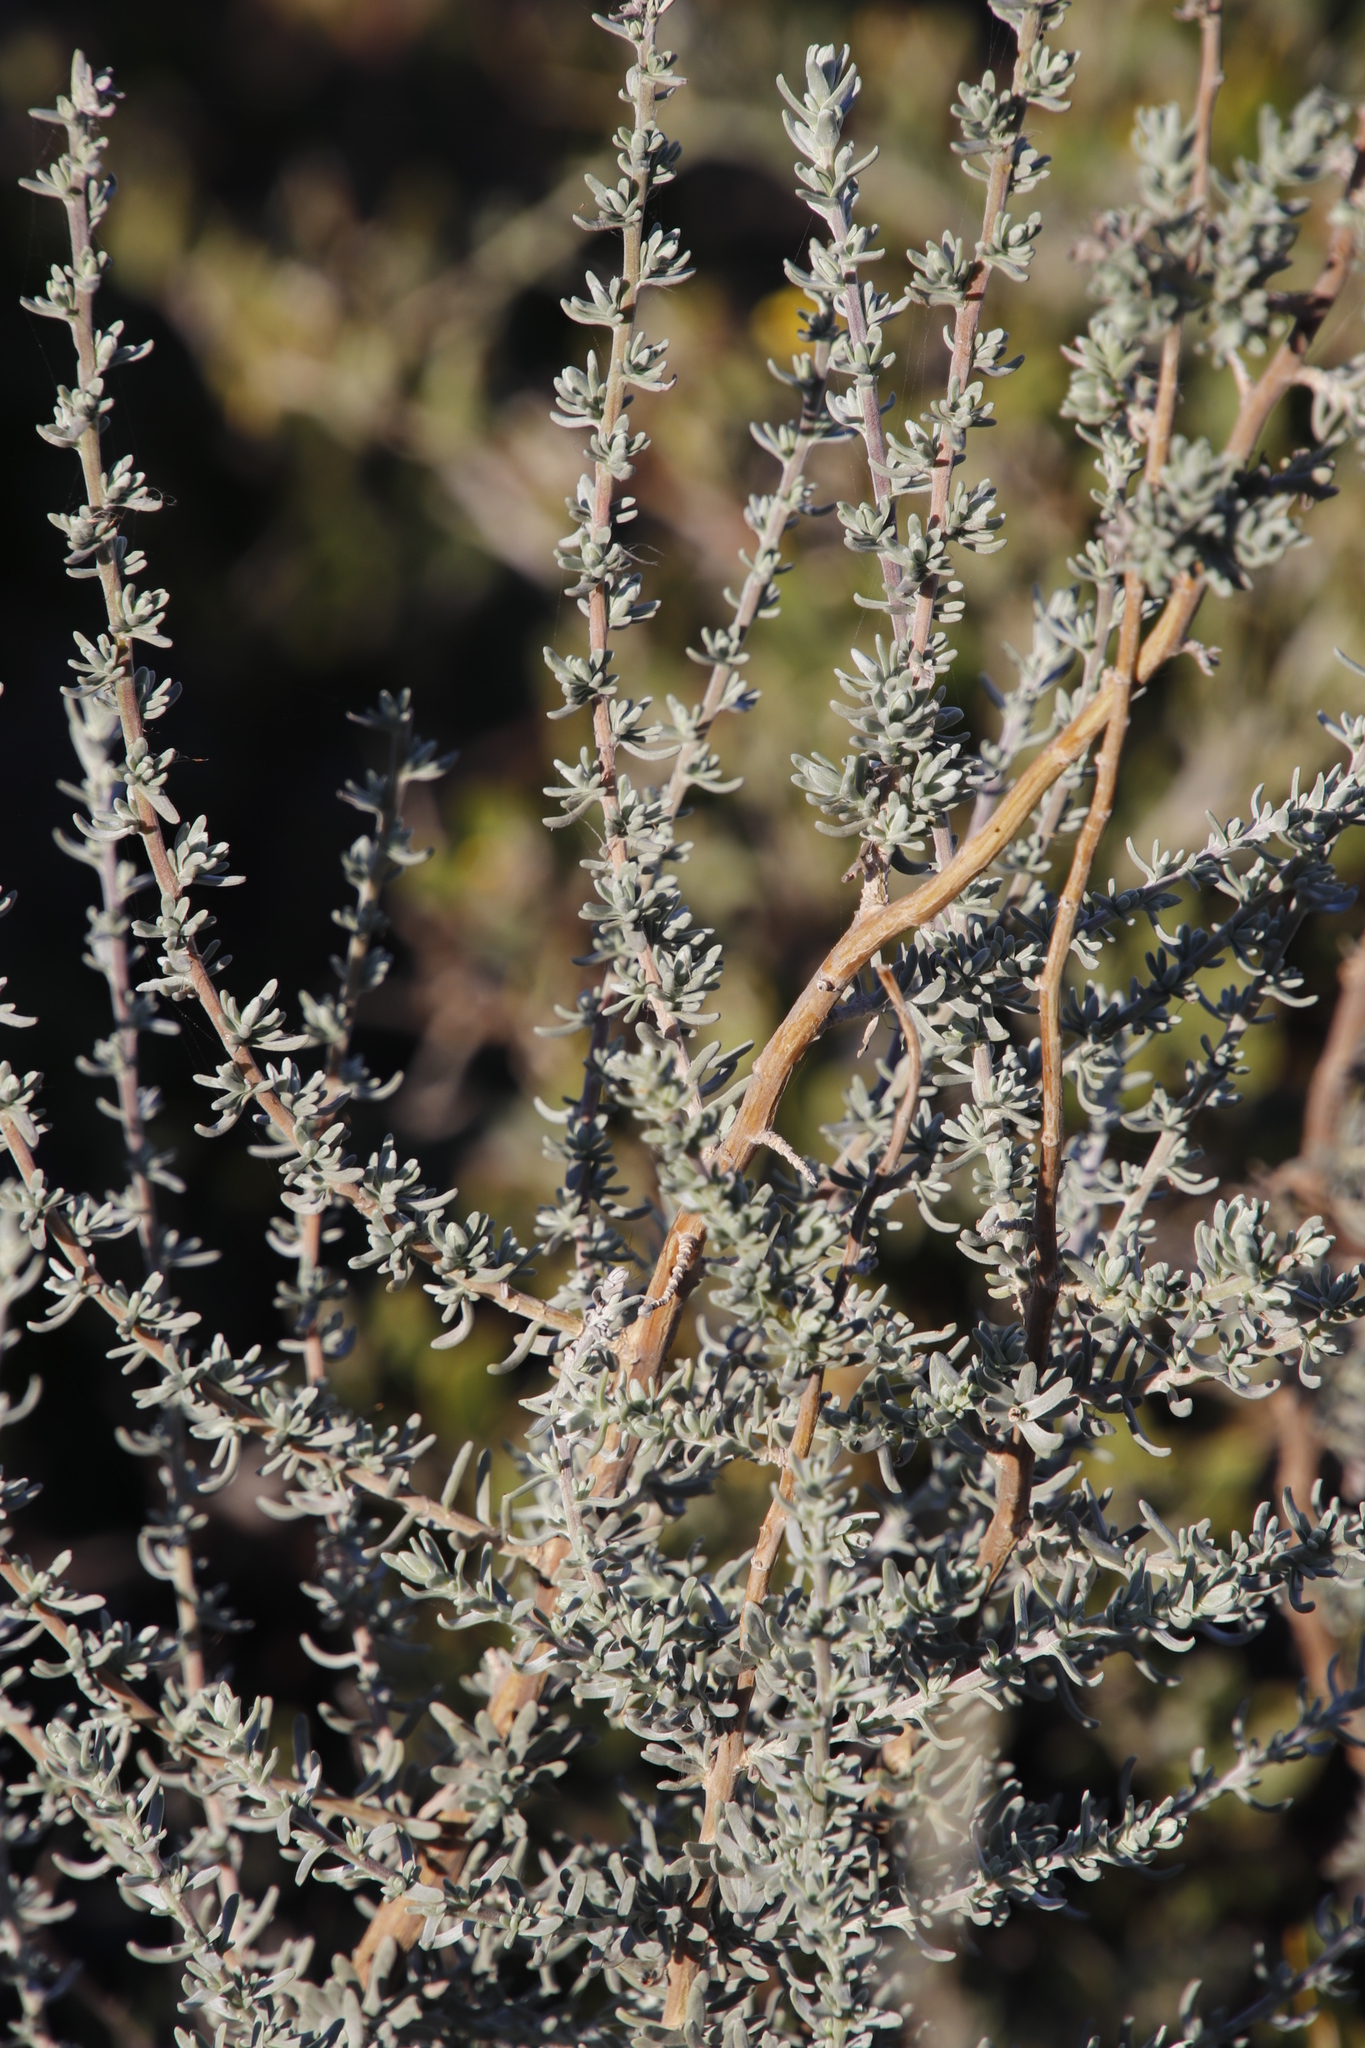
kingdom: Plantae
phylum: Tracheophyta
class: Magnoliopsida
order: Asterales
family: Asteraceae
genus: Eriocephalus
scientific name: Eriocephalus africanus
